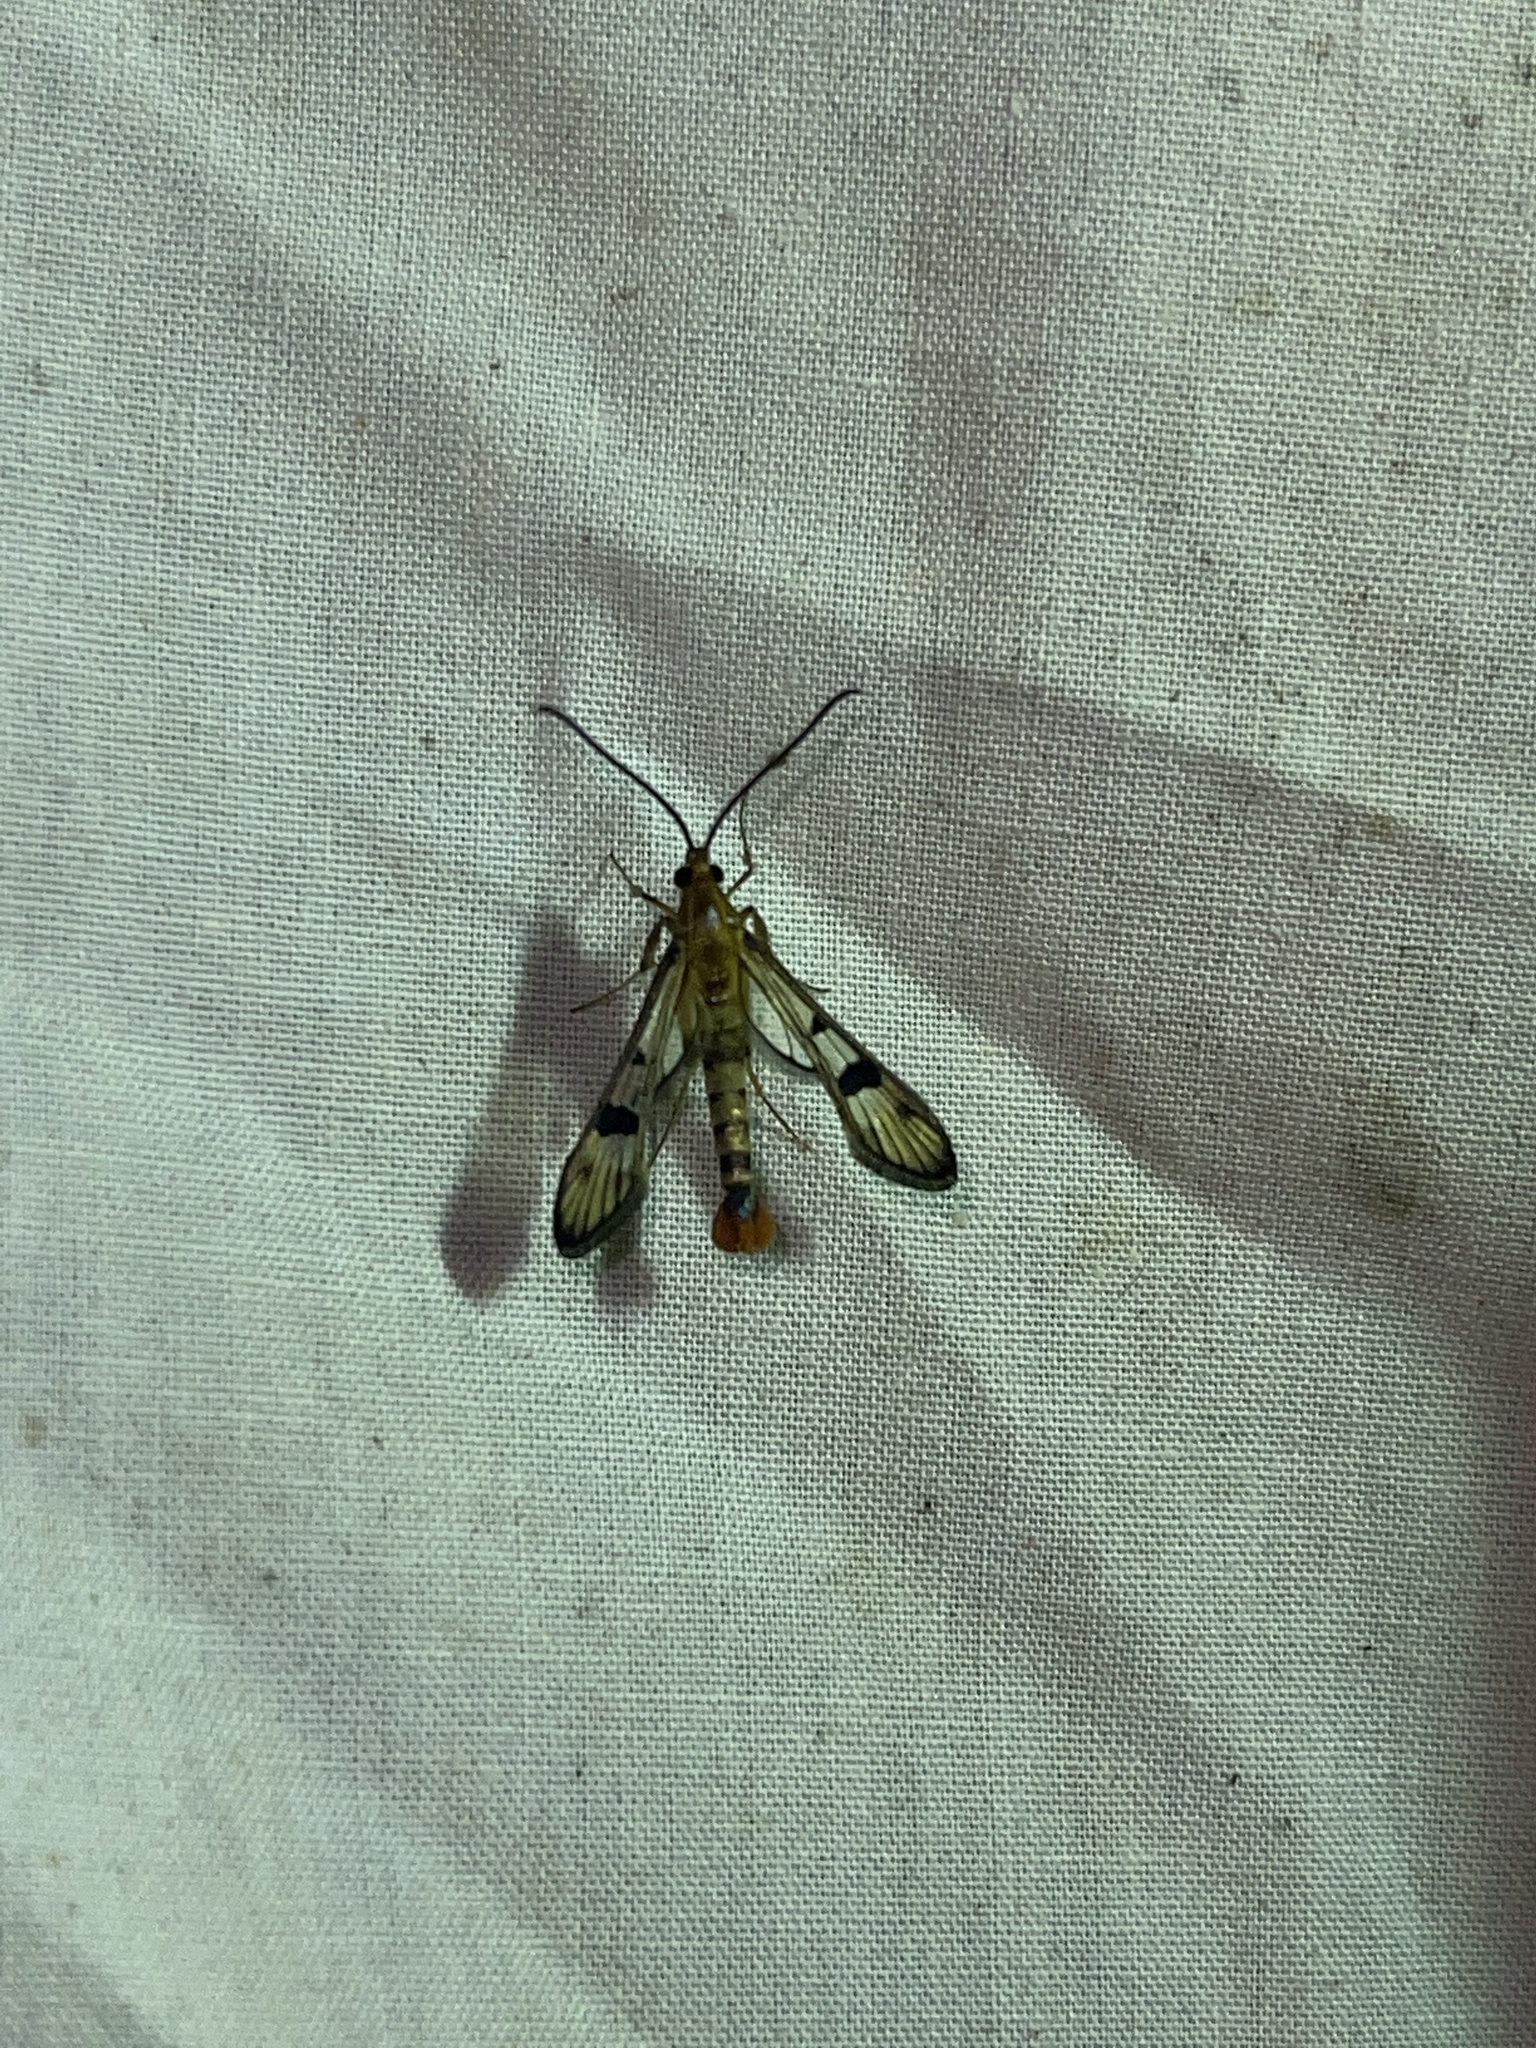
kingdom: Animalia
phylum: Arthropoda
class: Insecta
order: Lepidoptera
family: Sesiidae
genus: Synanthedon
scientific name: Synanthedon acerni
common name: Maple callus borer moth
